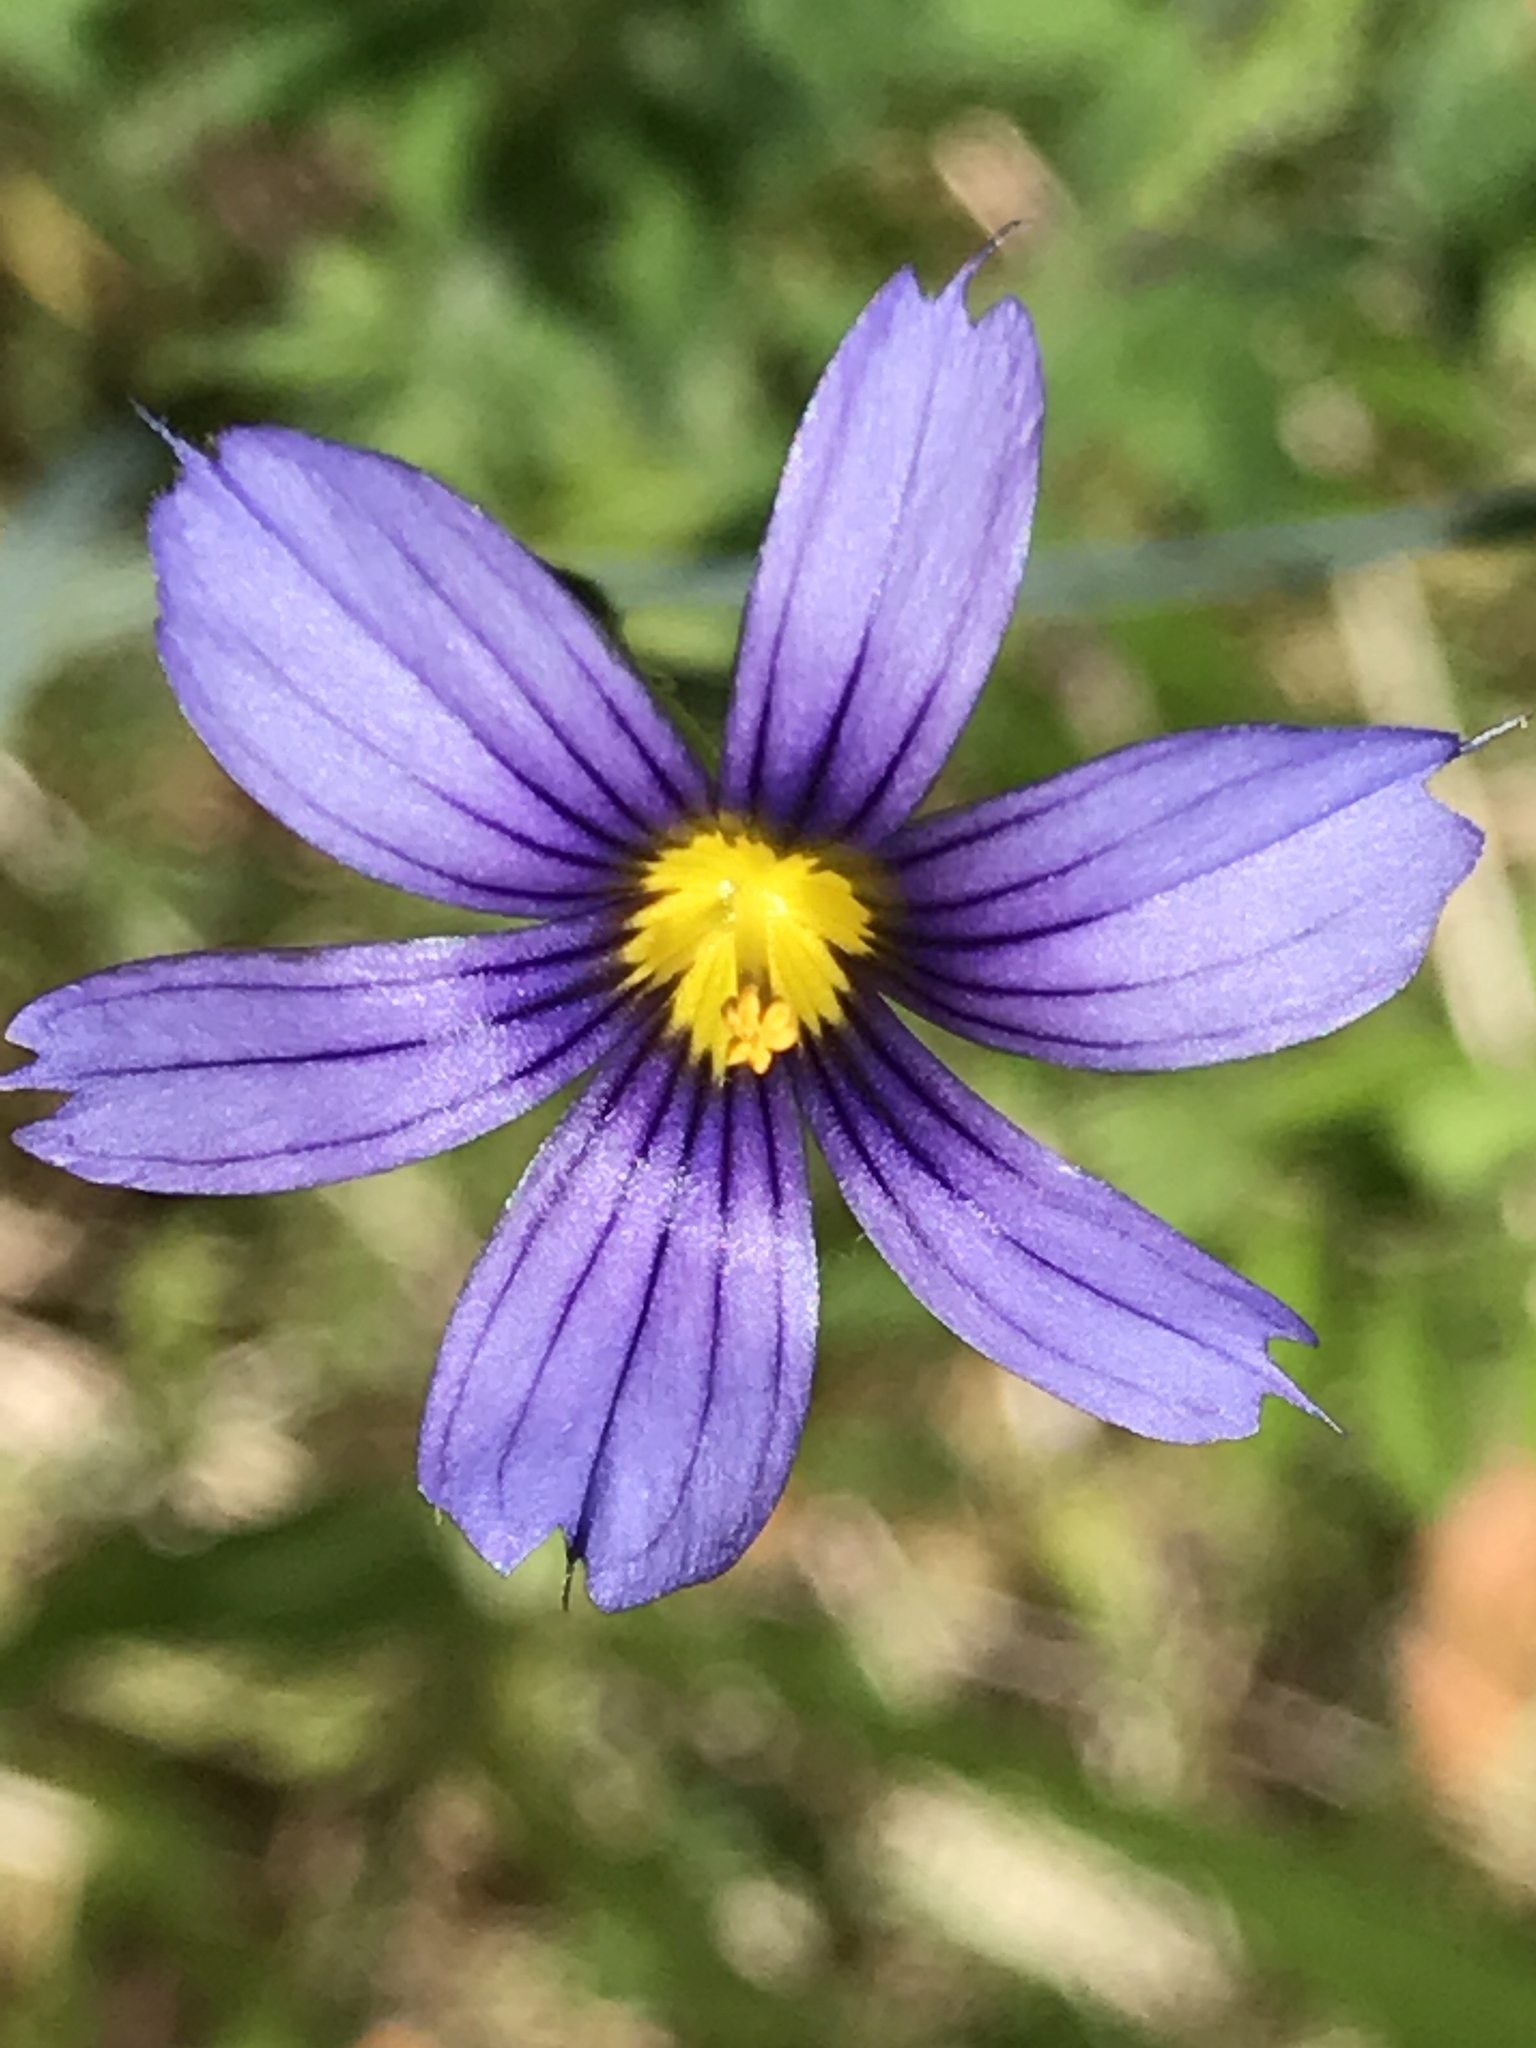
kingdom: Plantae
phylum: Tracheophyta
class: Liliopsida
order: Asparagales
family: Iridaceae
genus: Sisyrinchium
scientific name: Sisyrinchium bellum
